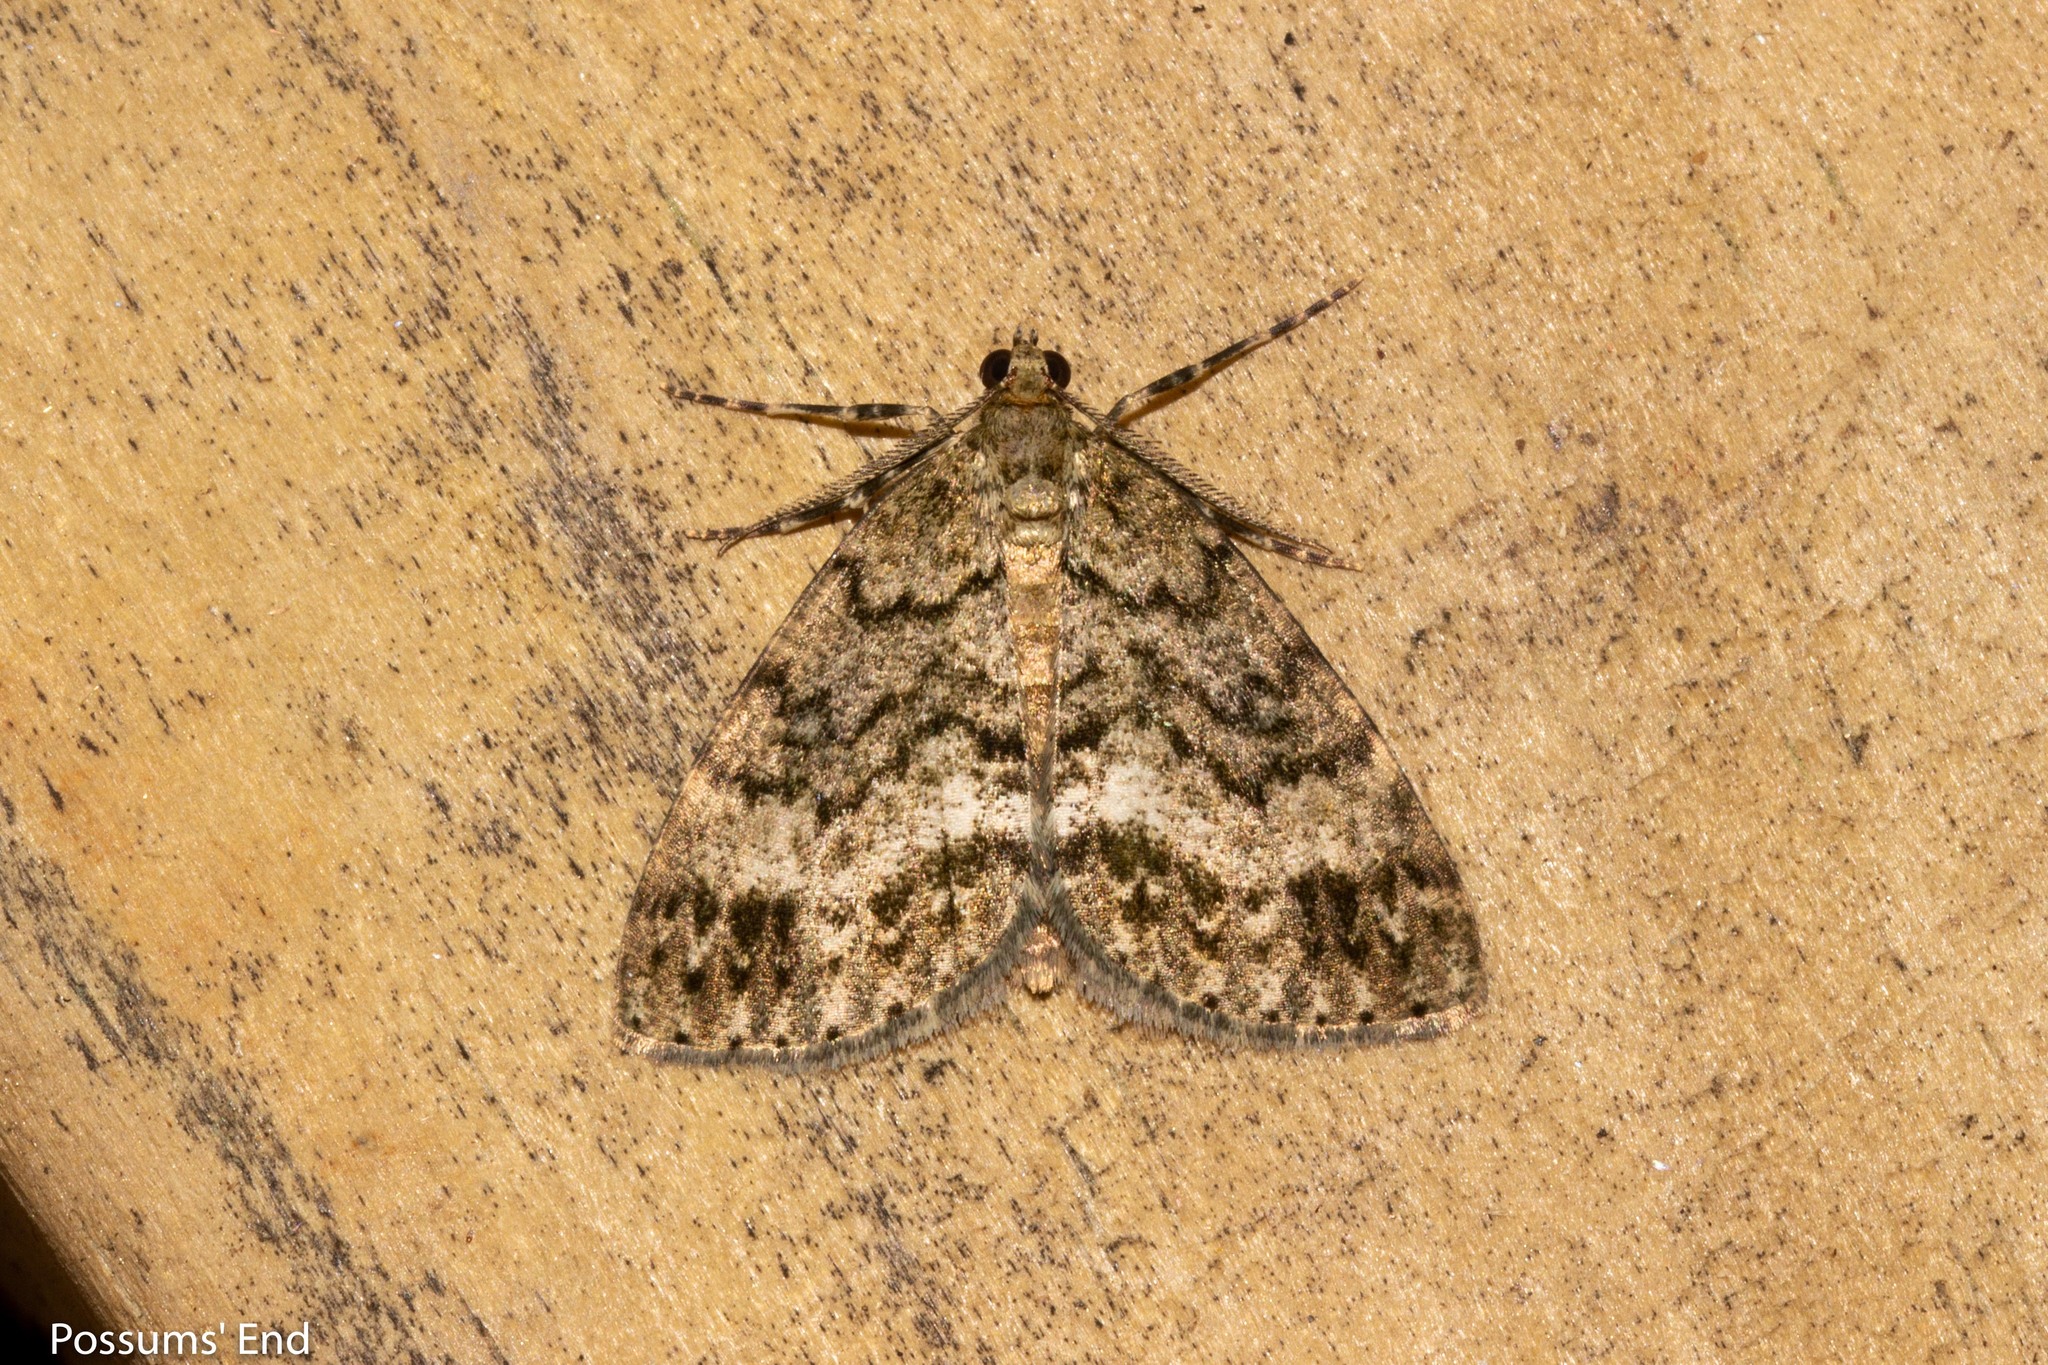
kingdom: Animalia
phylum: Arthropoda
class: Insecta
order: Lepidoptera
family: Geometridae
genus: Pseudocoremia
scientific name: Pseudocoremia indistincta
